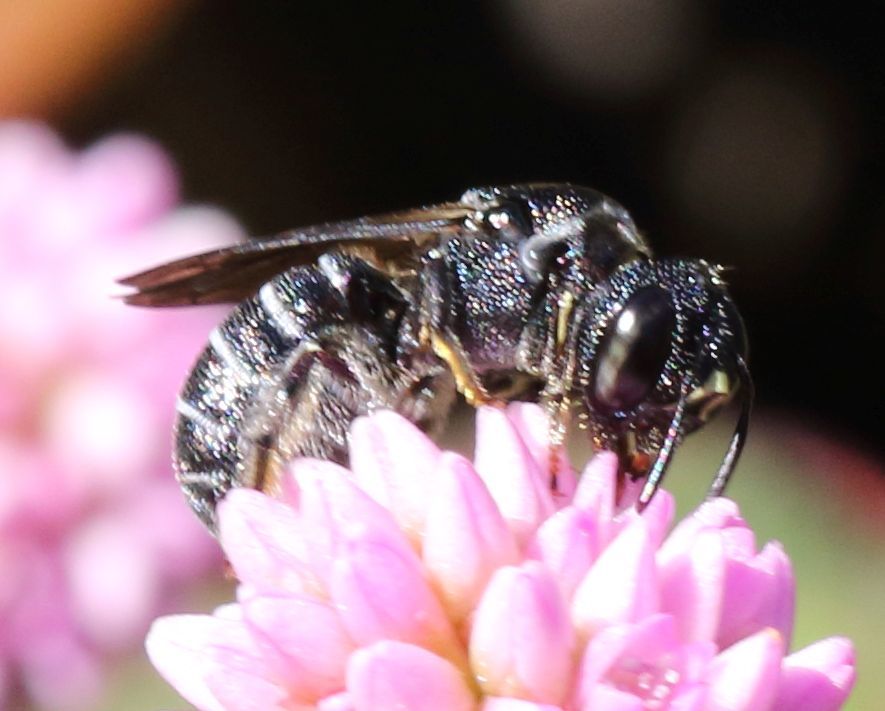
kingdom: Animalia
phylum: Arthropoda
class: Insecta
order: Hymenoptera
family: Apidae
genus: Ceratina
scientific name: Ceratina moerenhouti
